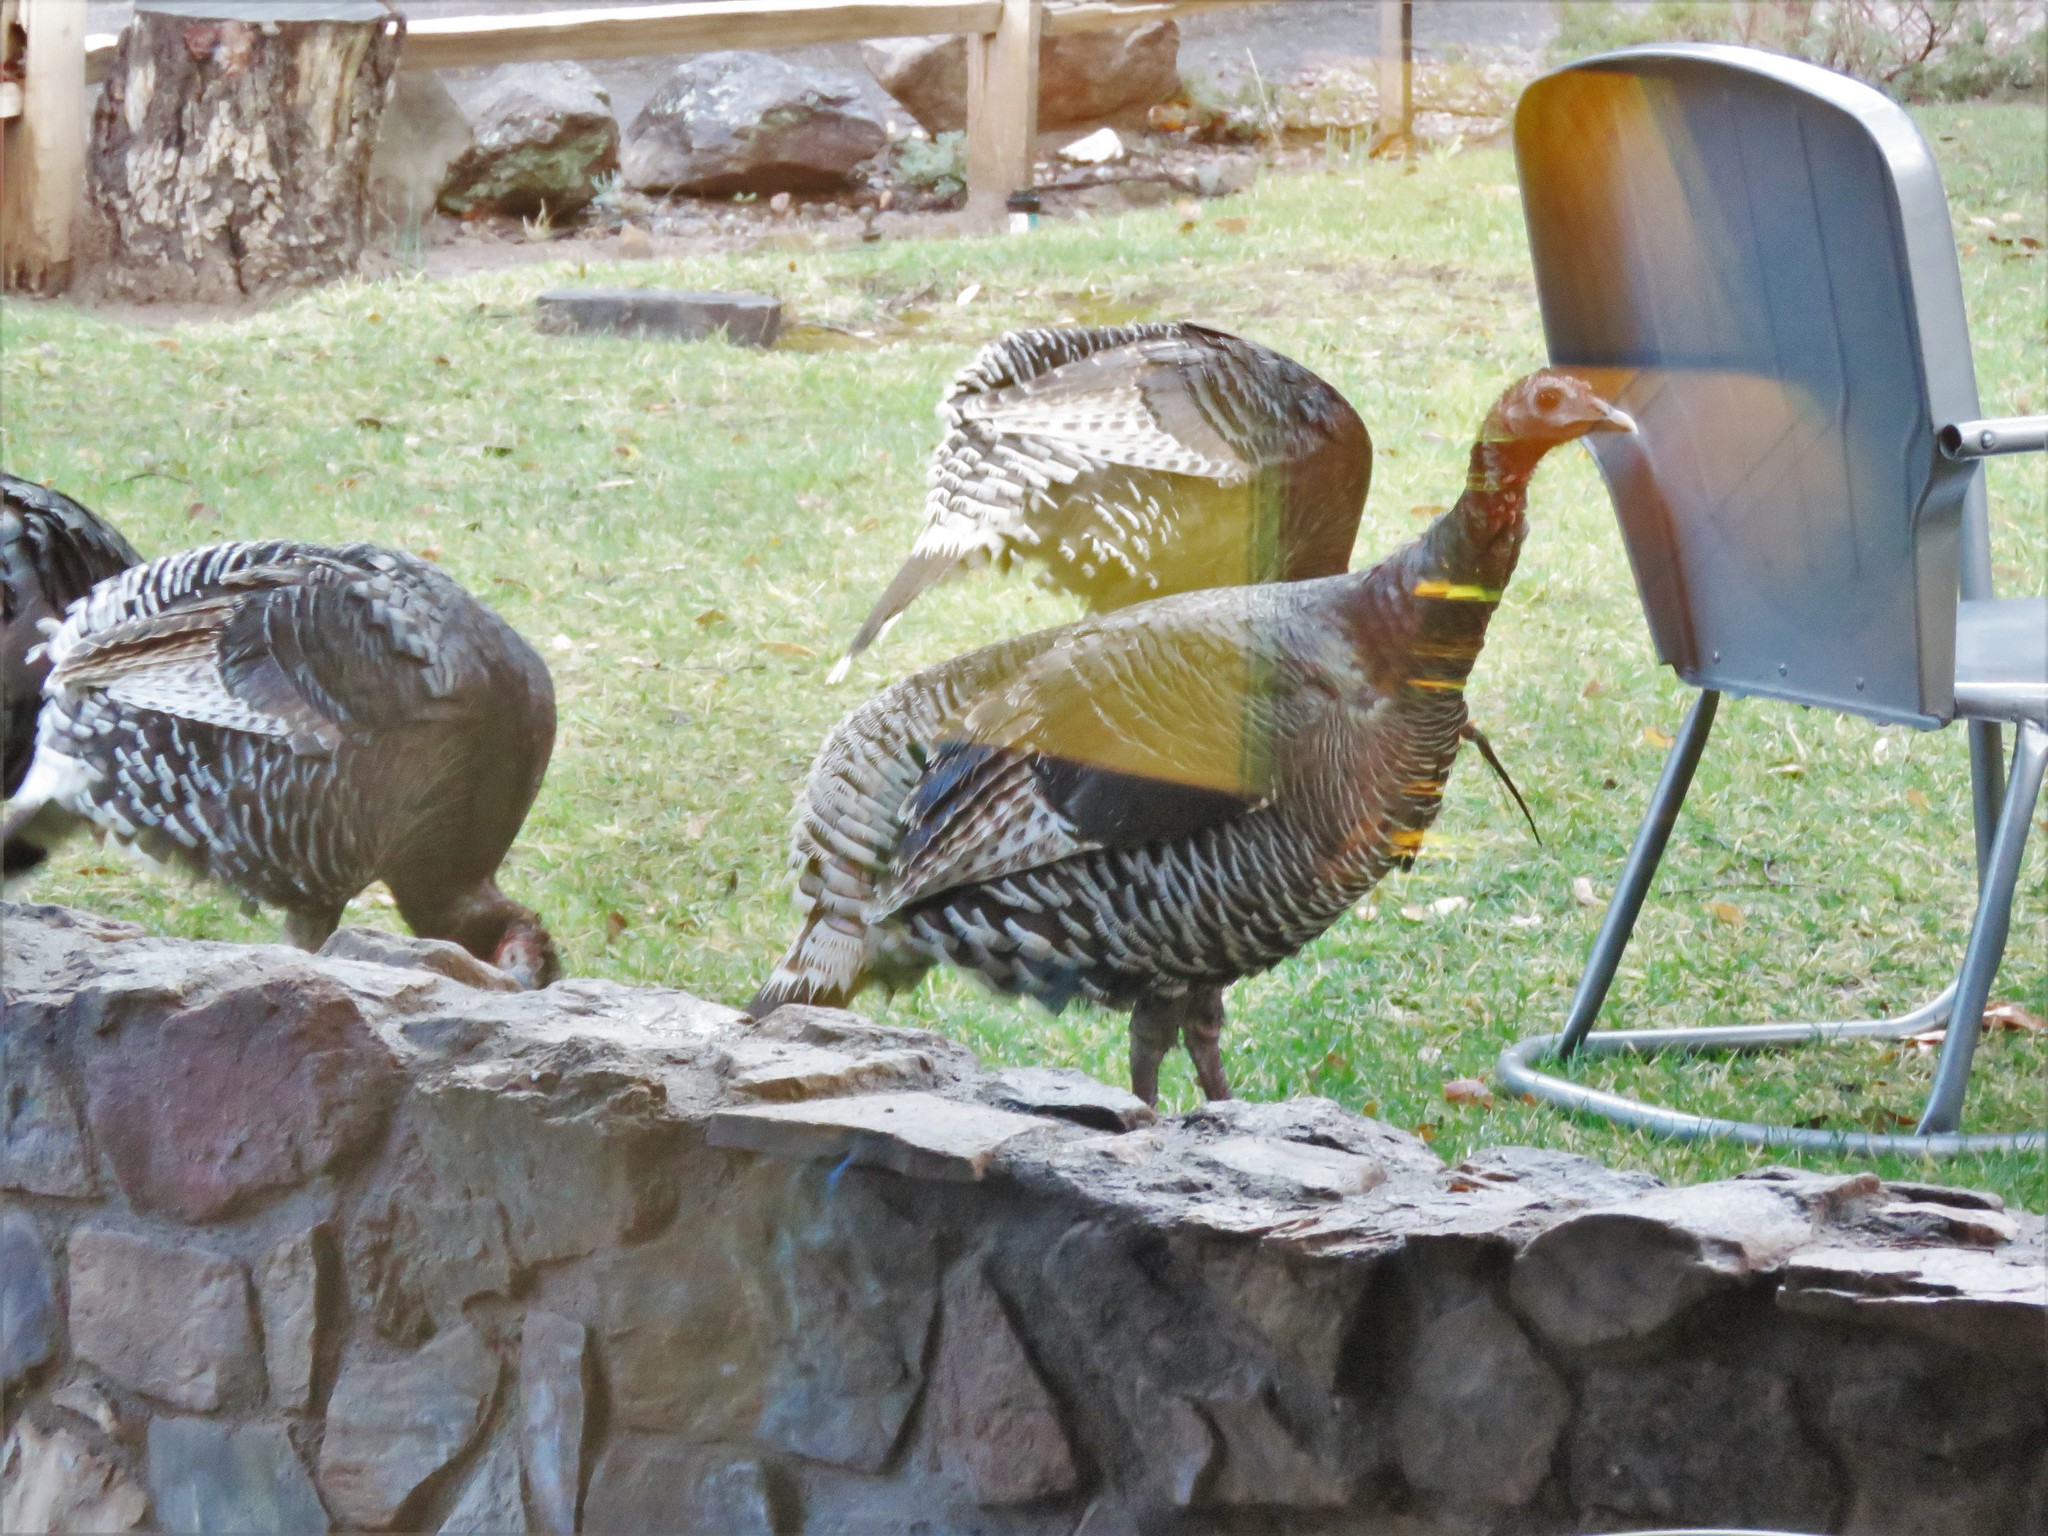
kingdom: Animalia
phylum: Chordata
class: Aves
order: Galliformes
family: Phasianidae
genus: Meleagris
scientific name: Meleagris gallopavo
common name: Wild turkey
